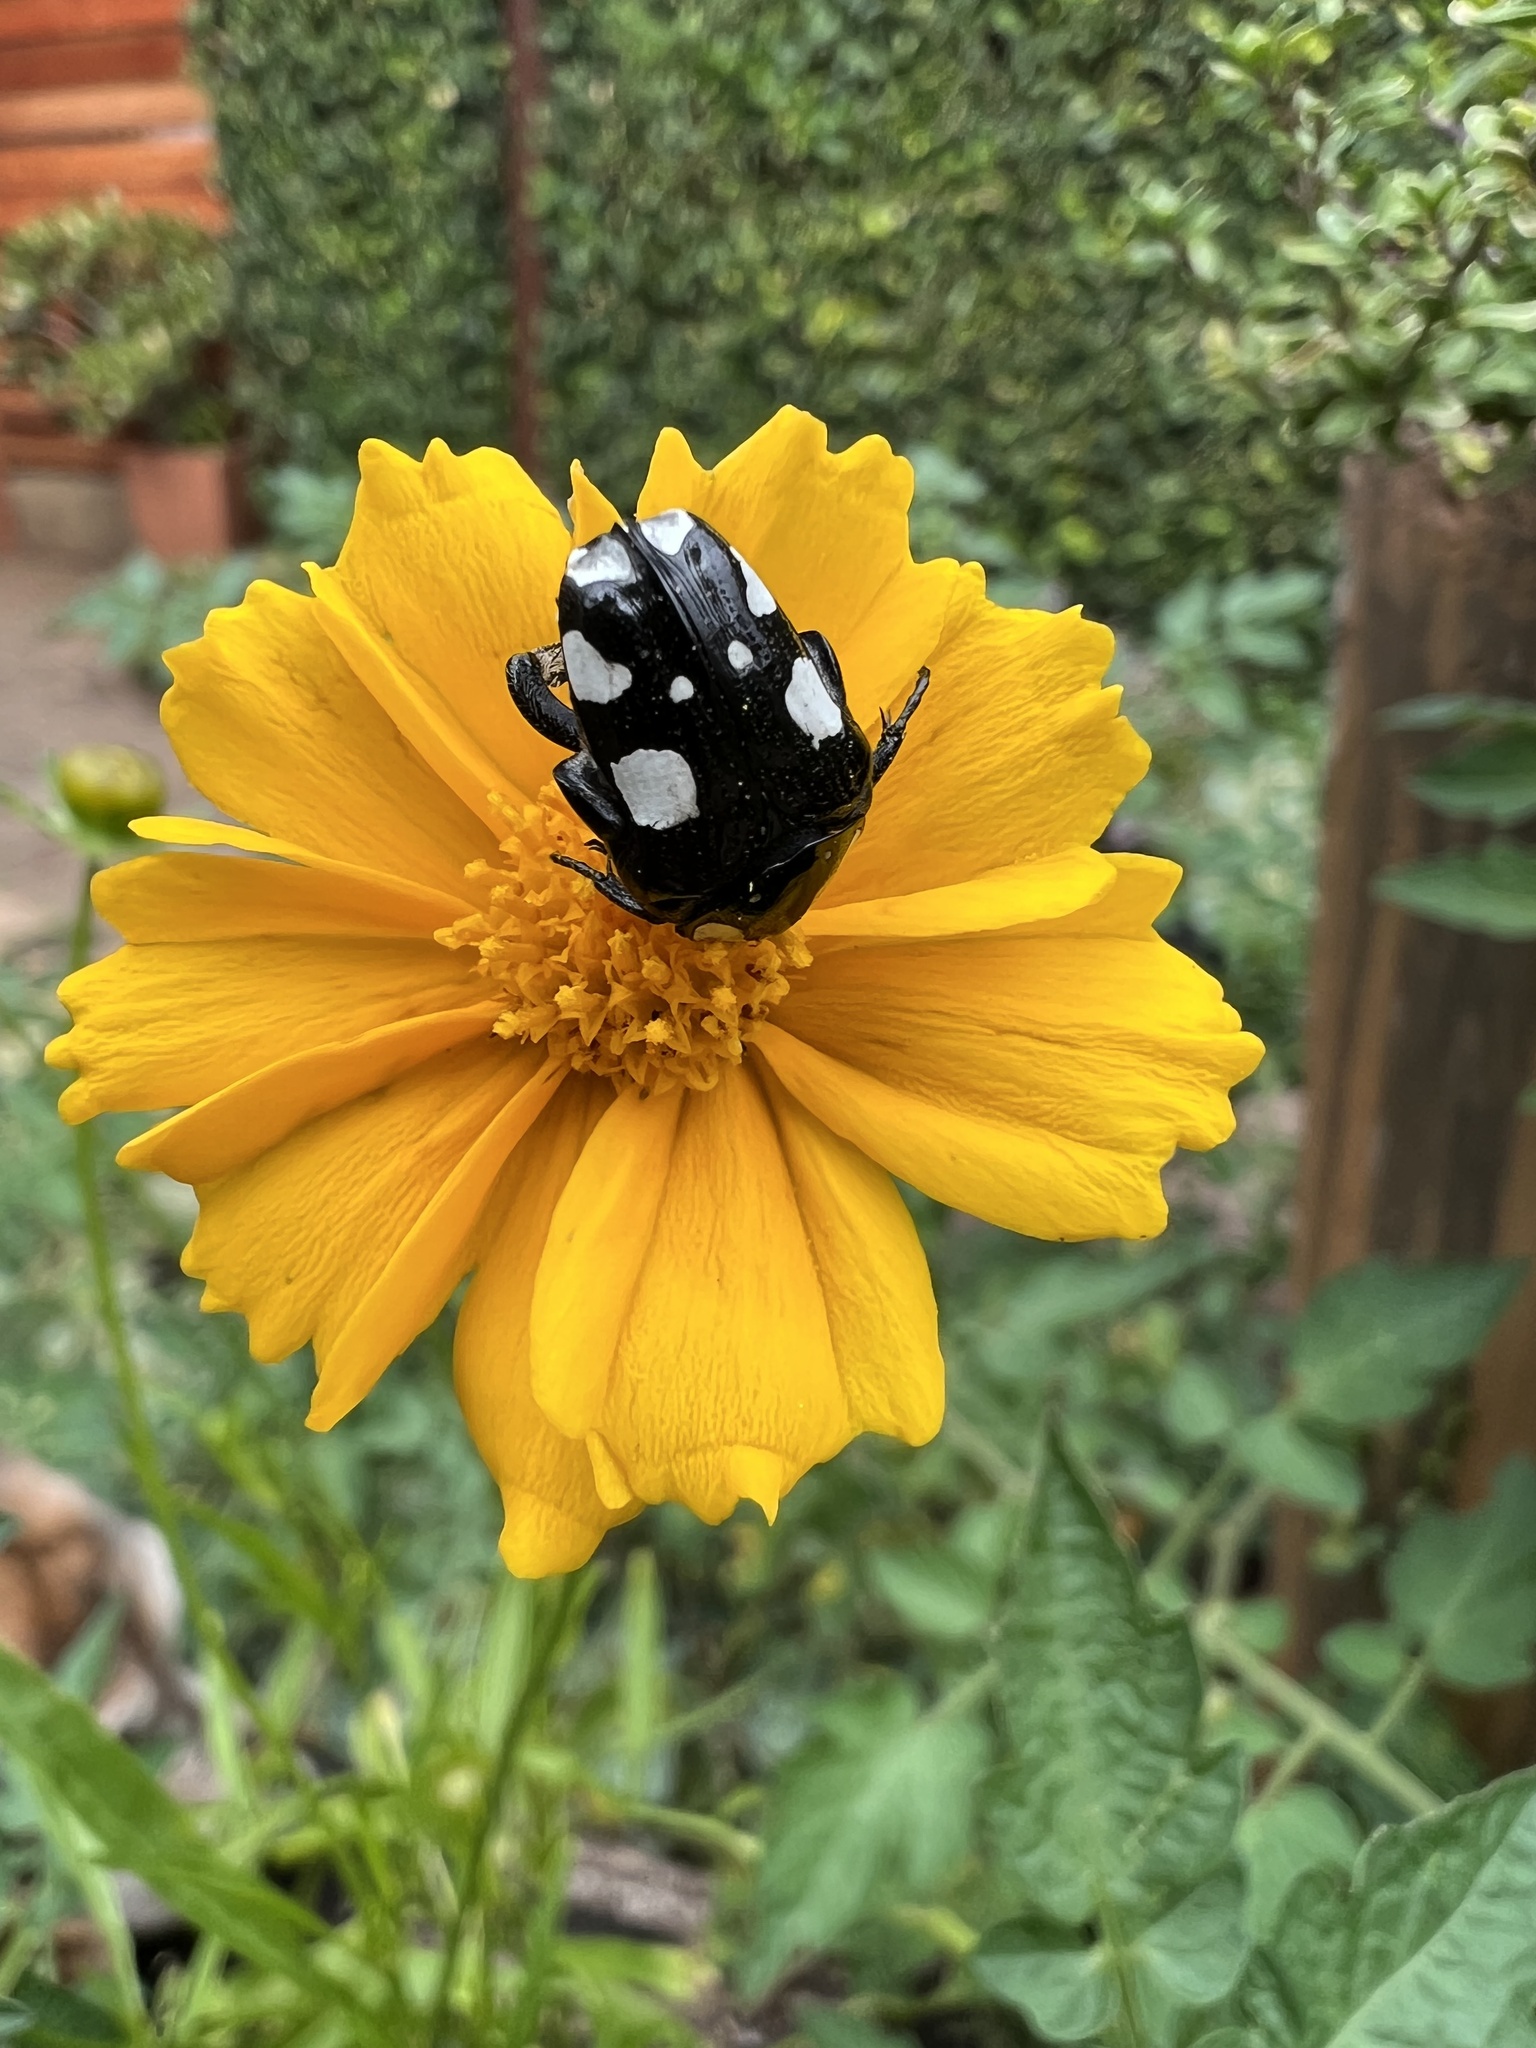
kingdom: Animalia
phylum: Arthropoda
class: Insecta
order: Coleoptera
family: Scarabaeidae
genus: Mausoleopsis
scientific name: Mausoleopsis amabilis
